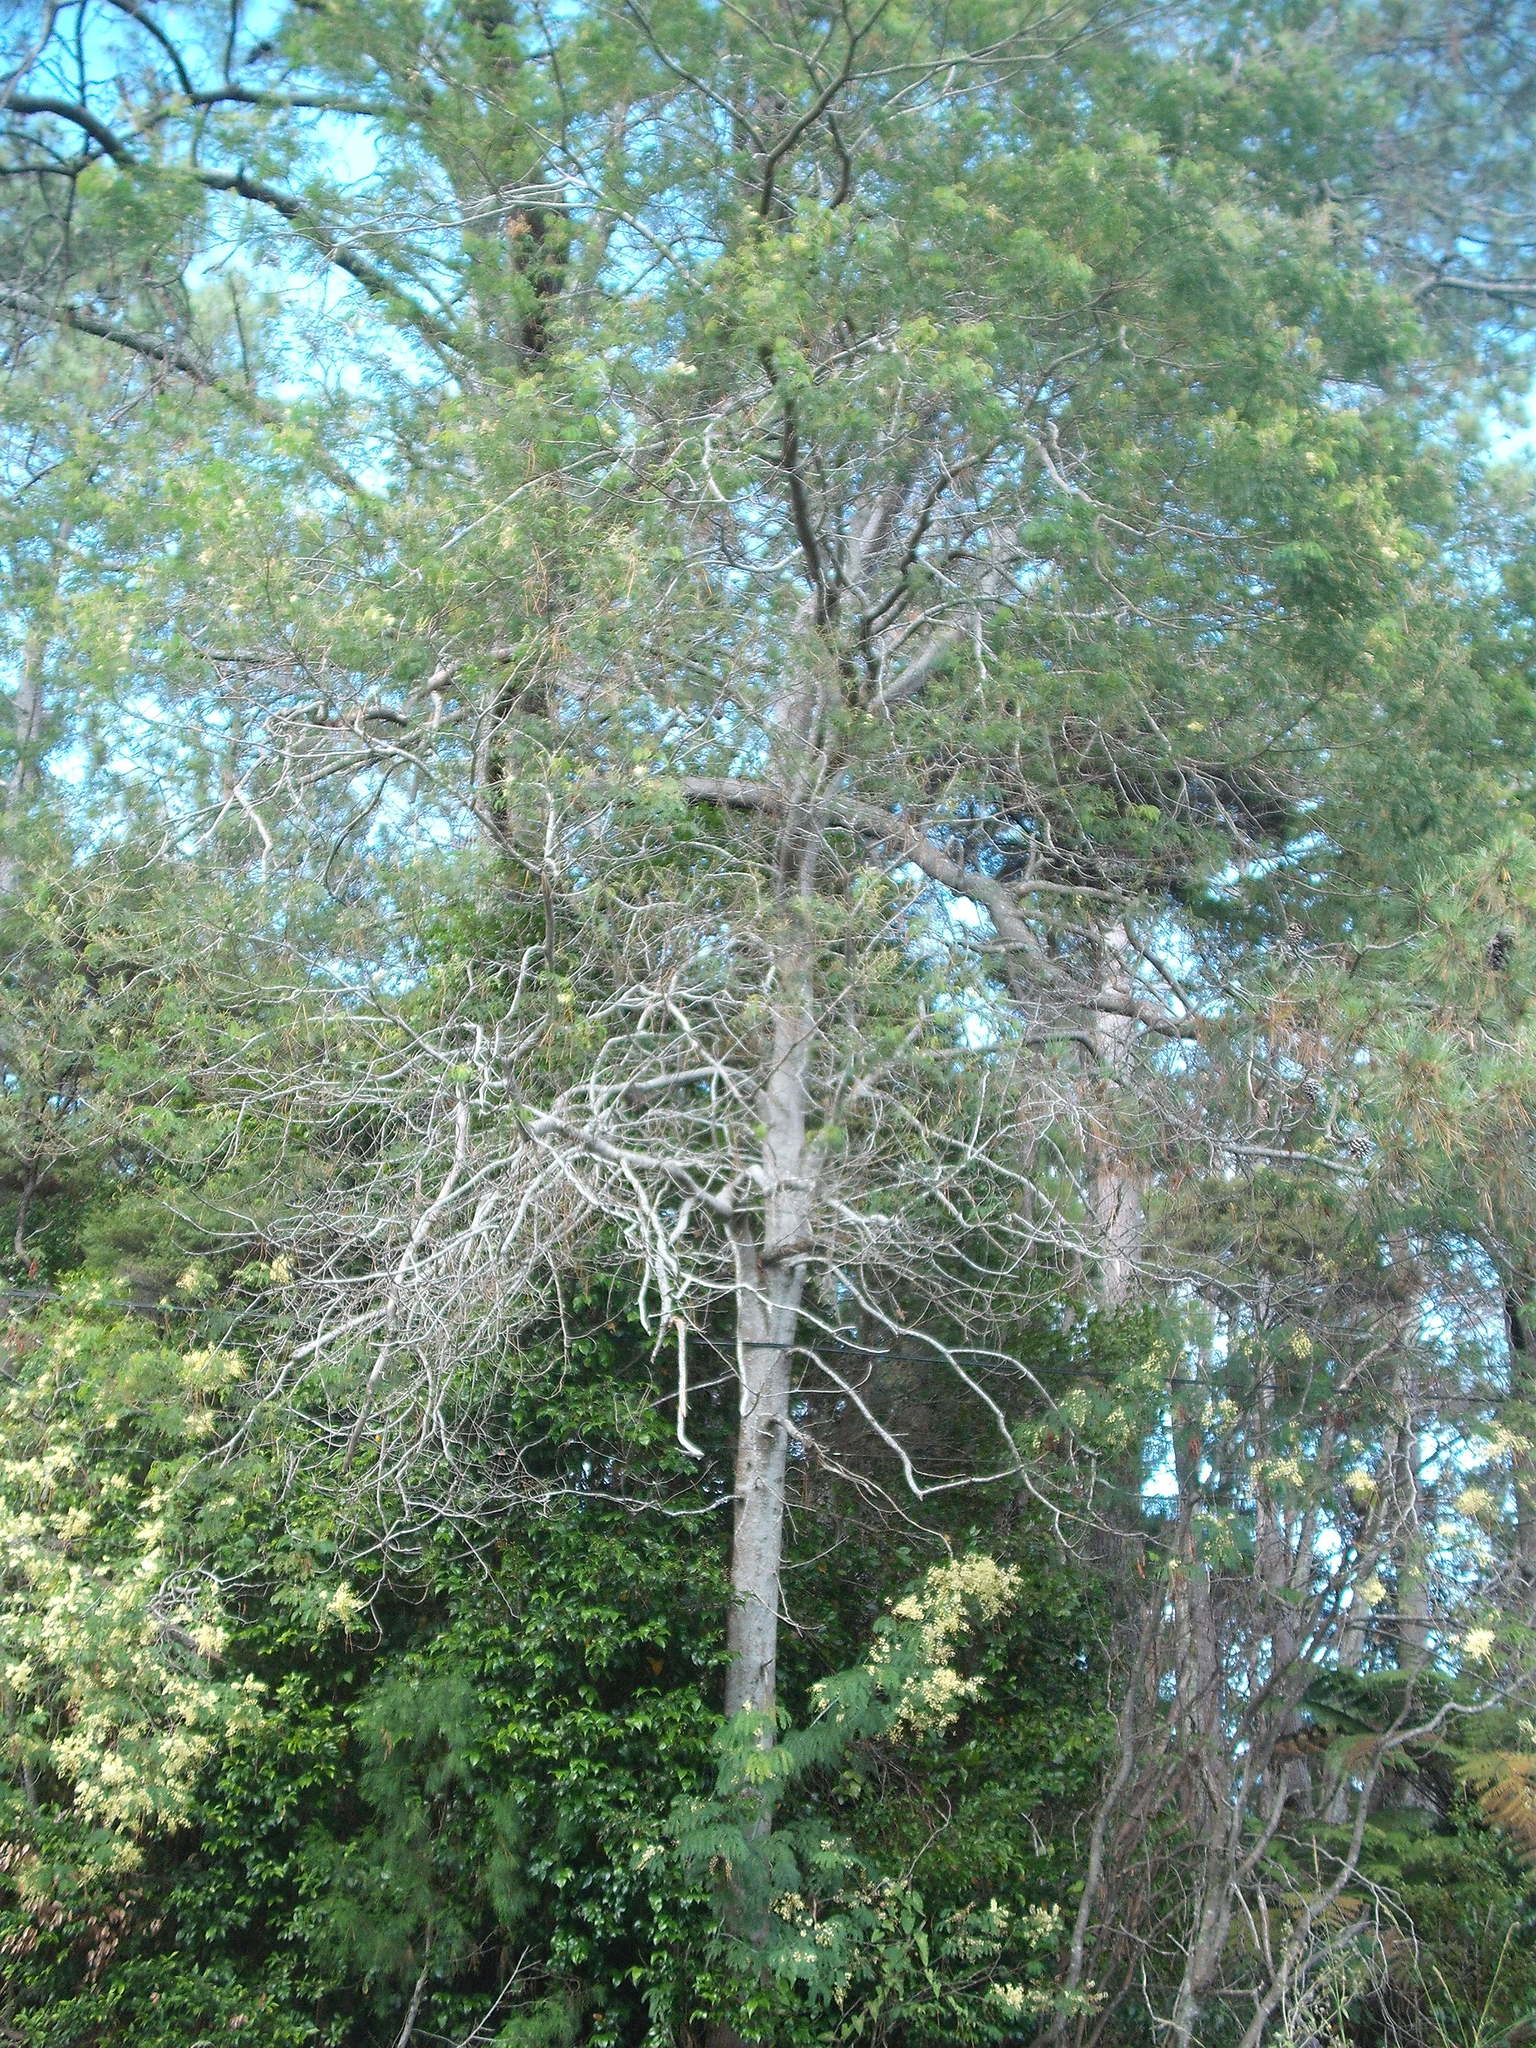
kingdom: Plantae
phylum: Tracheophyta
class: Magnoliopsida
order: Fabales
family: Fabaceae
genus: Acacia
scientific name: Acacia schinoides
